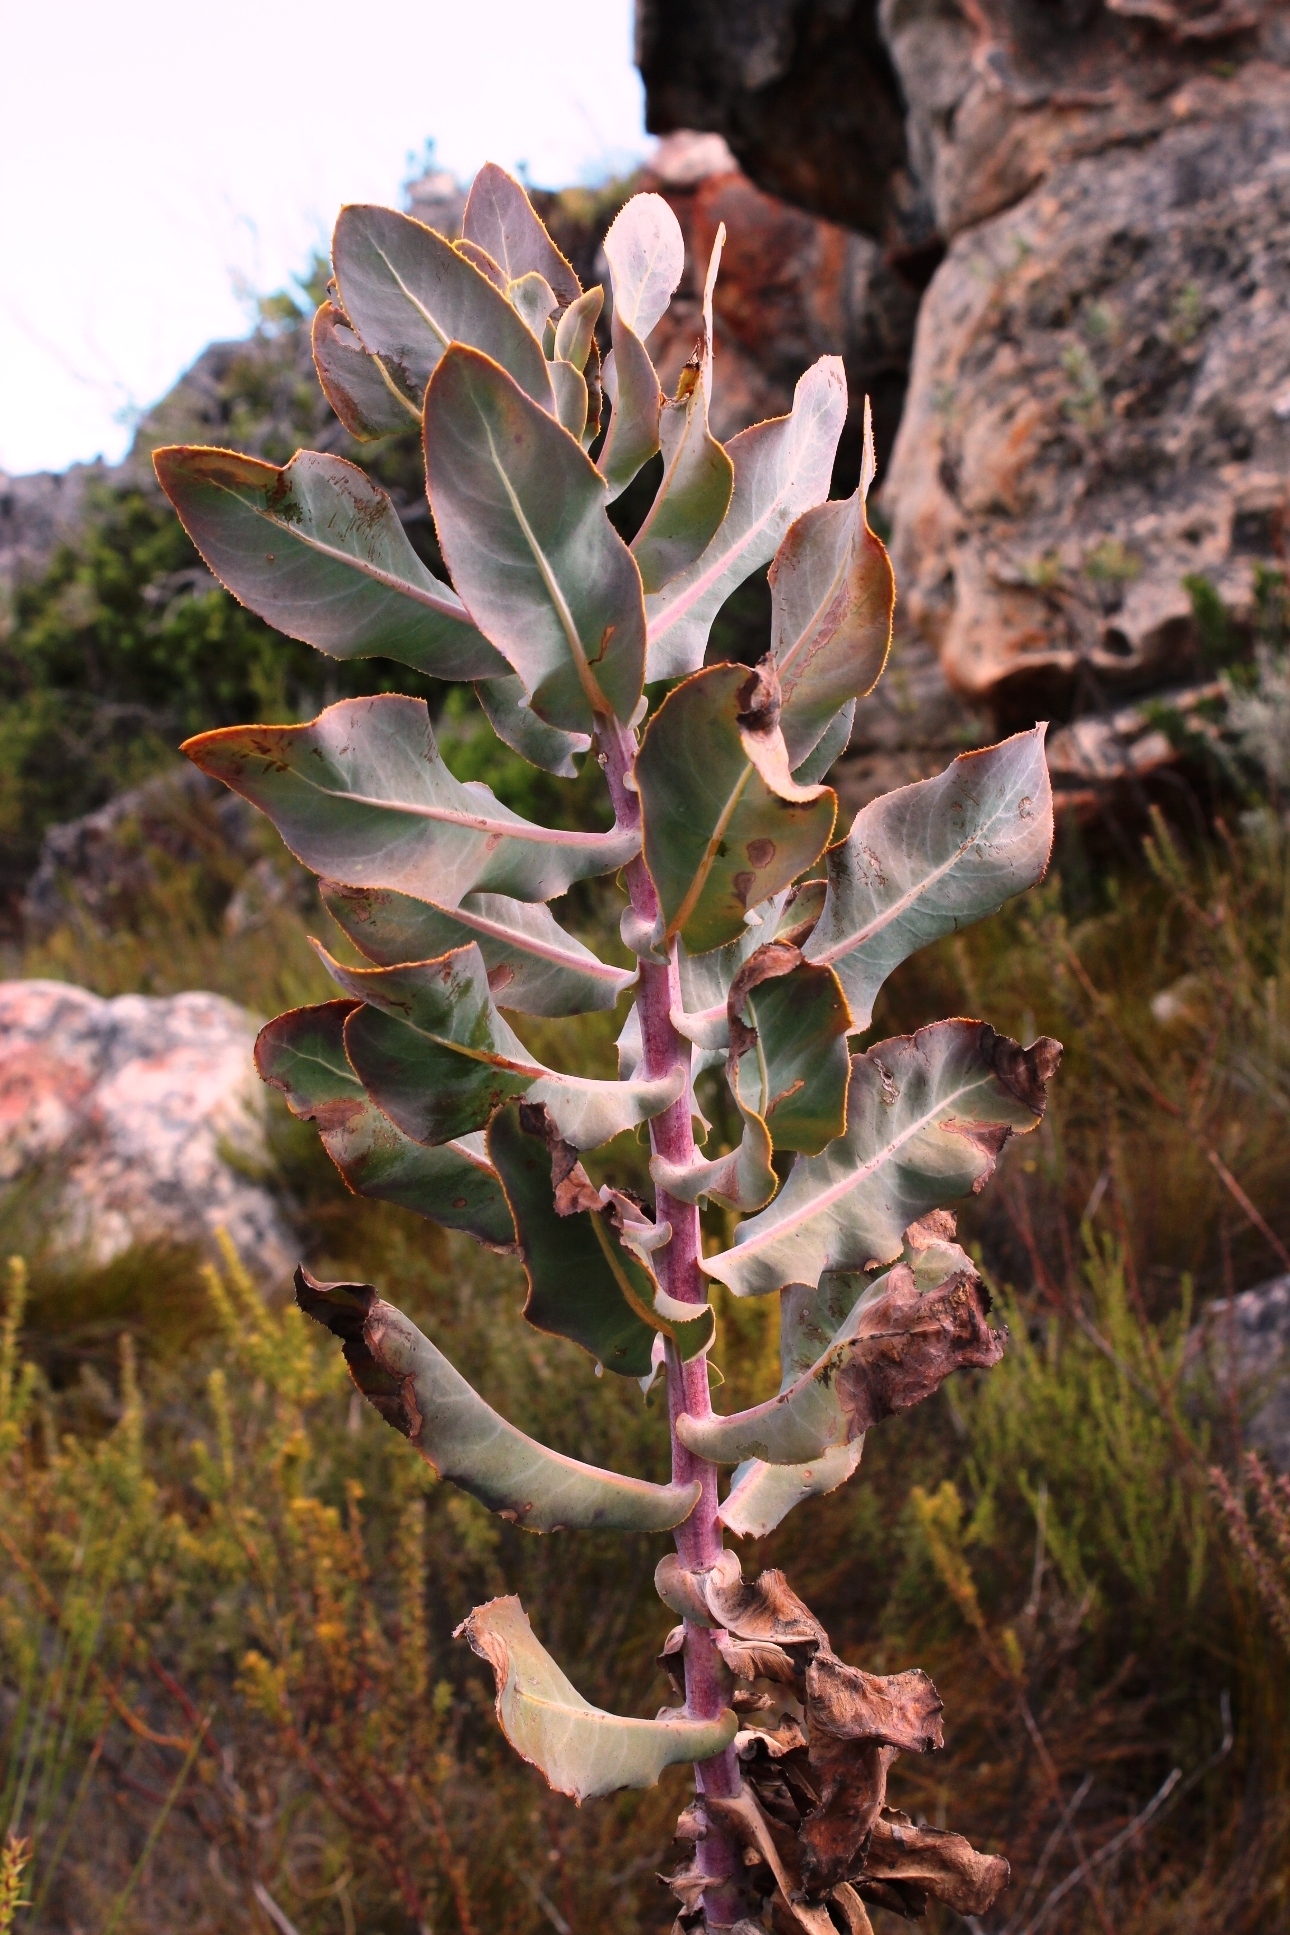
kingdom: Plantae
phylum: Tracheophyta
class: Magnoliopsida
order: Asterales
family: Asteraceae
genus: Othonna
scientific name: Othonna parviflora
